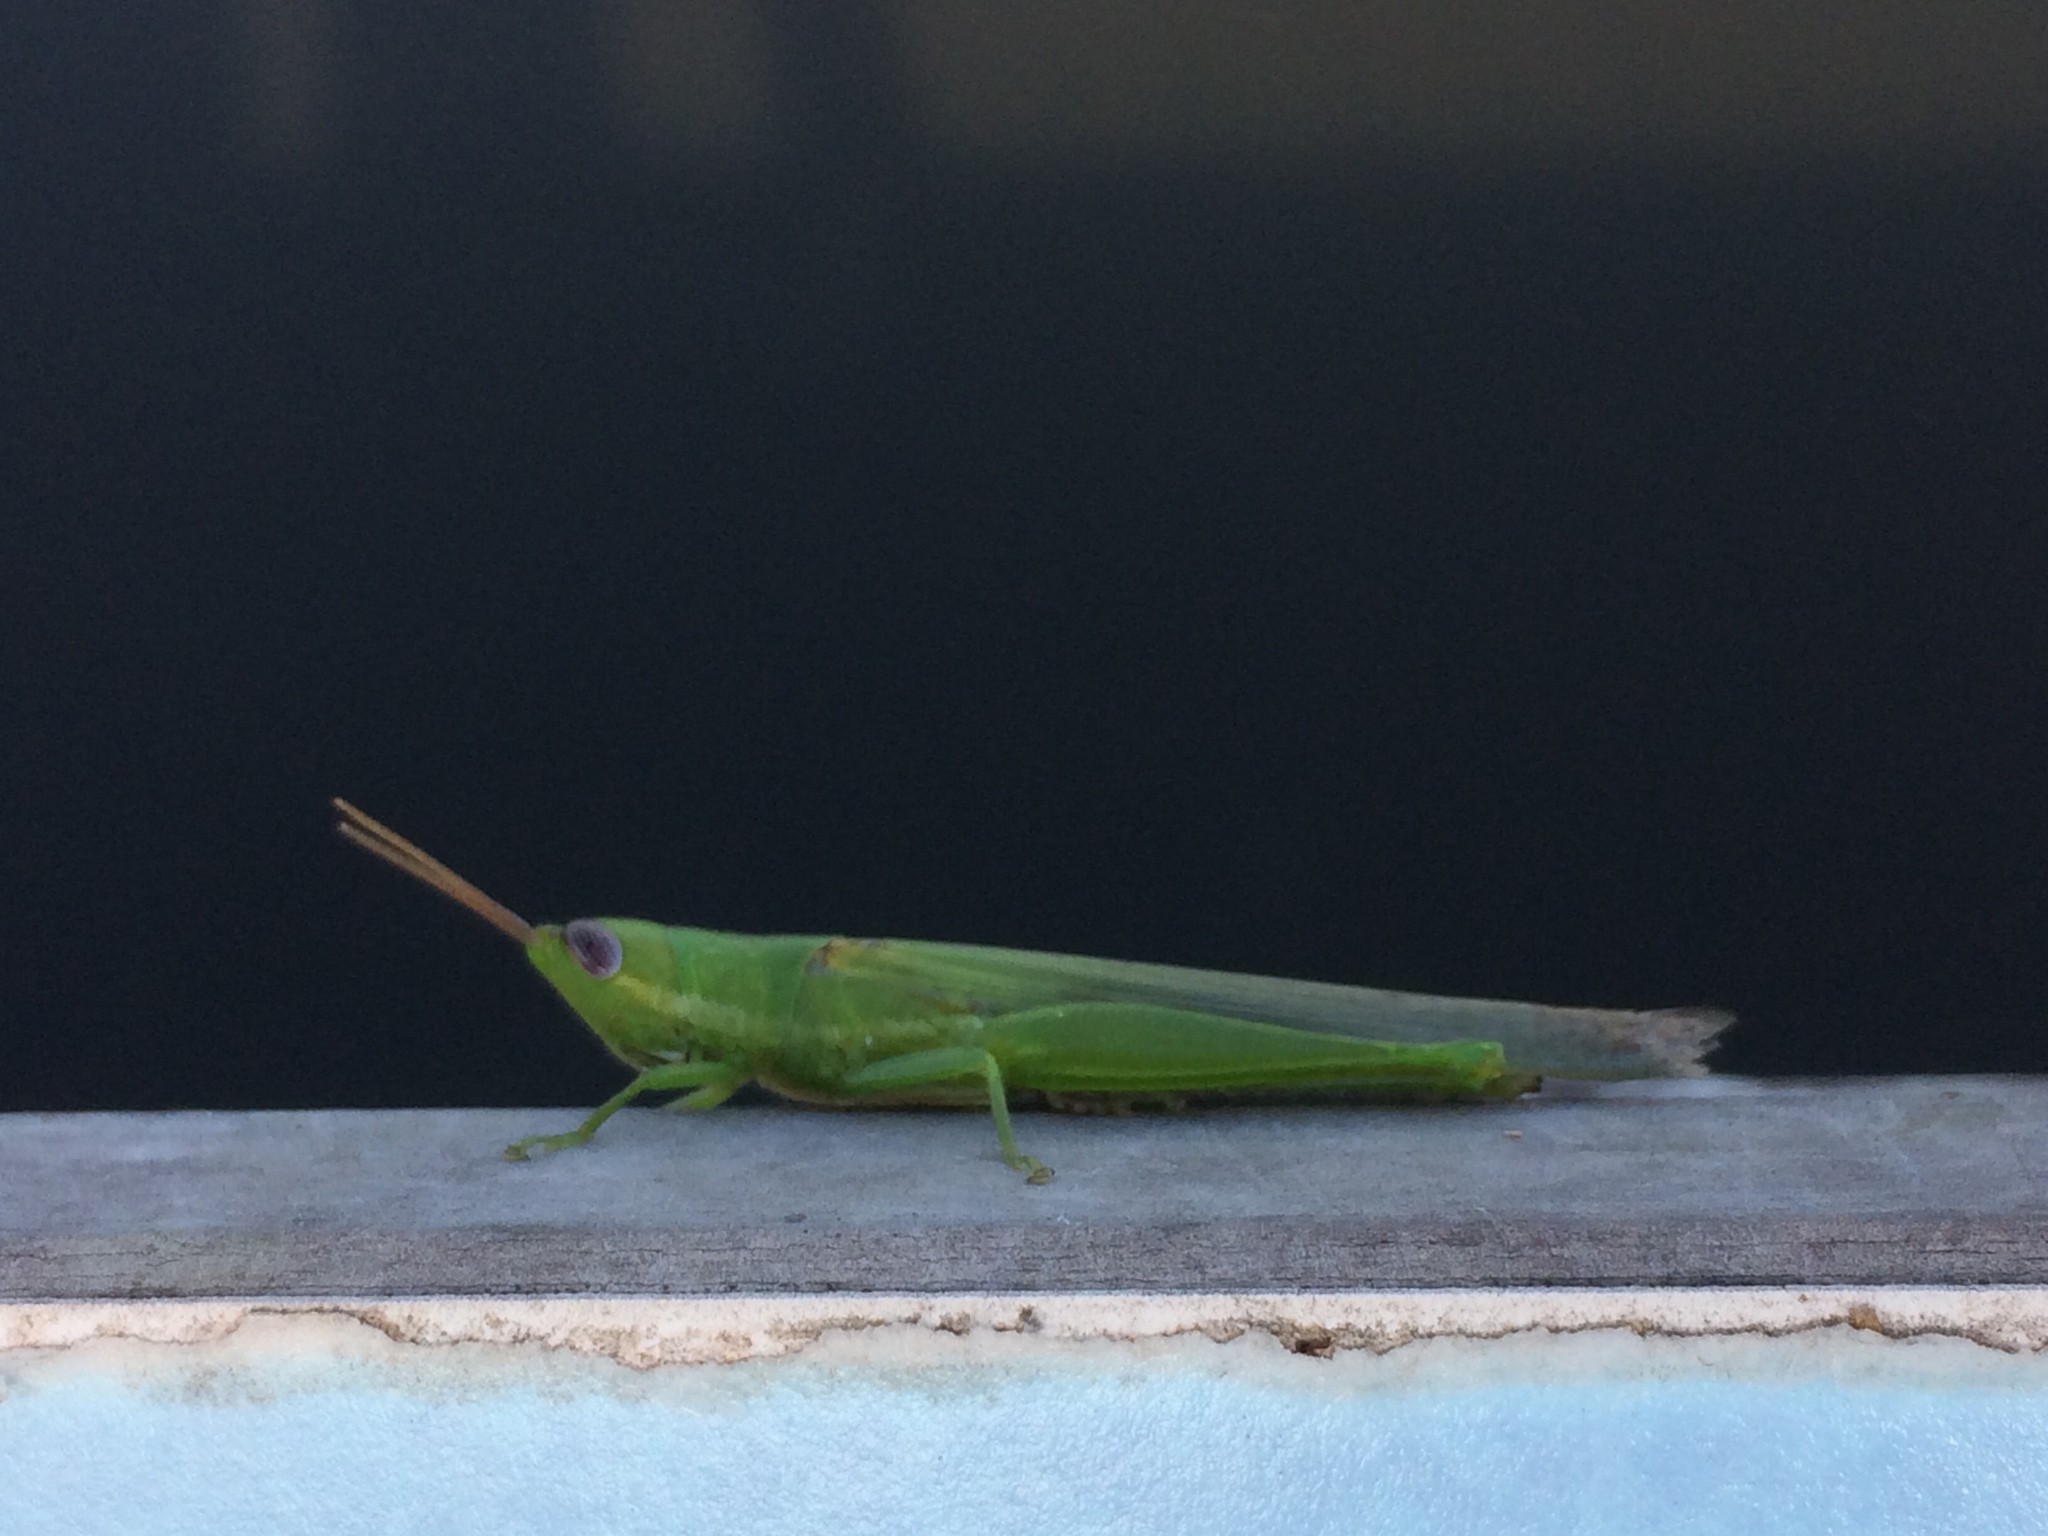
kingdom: Animalia
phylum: Arthropoda
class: Insecta
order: Orthoptera
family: Acrididae
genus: Stenacris
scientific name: Stenacris vitreipennis
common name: Glassy-winged toothpick grasshopper
